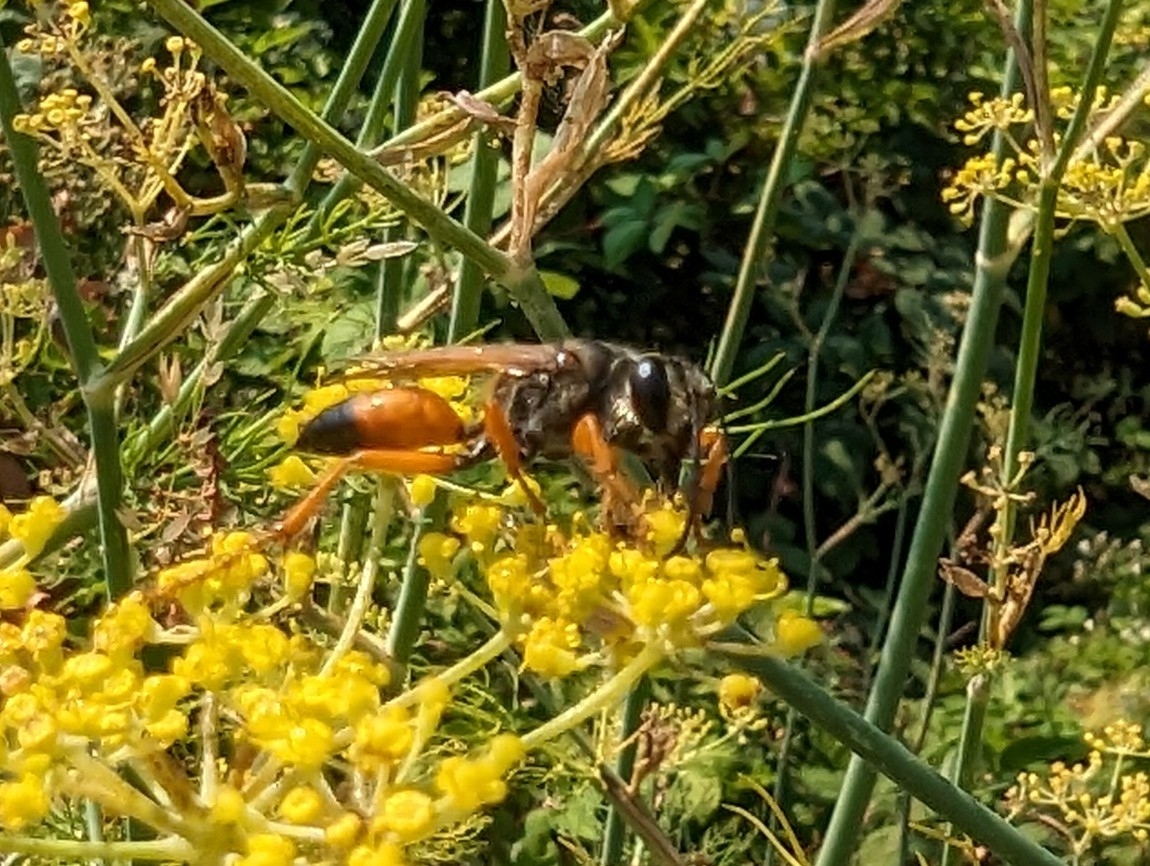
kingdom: Animalia
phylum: Arthropoda
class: Insecta
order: Hymenoptera
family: Sphecidae
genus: Sphex
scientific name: Sphex ichneumoneus
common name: Great golden digger wasp
